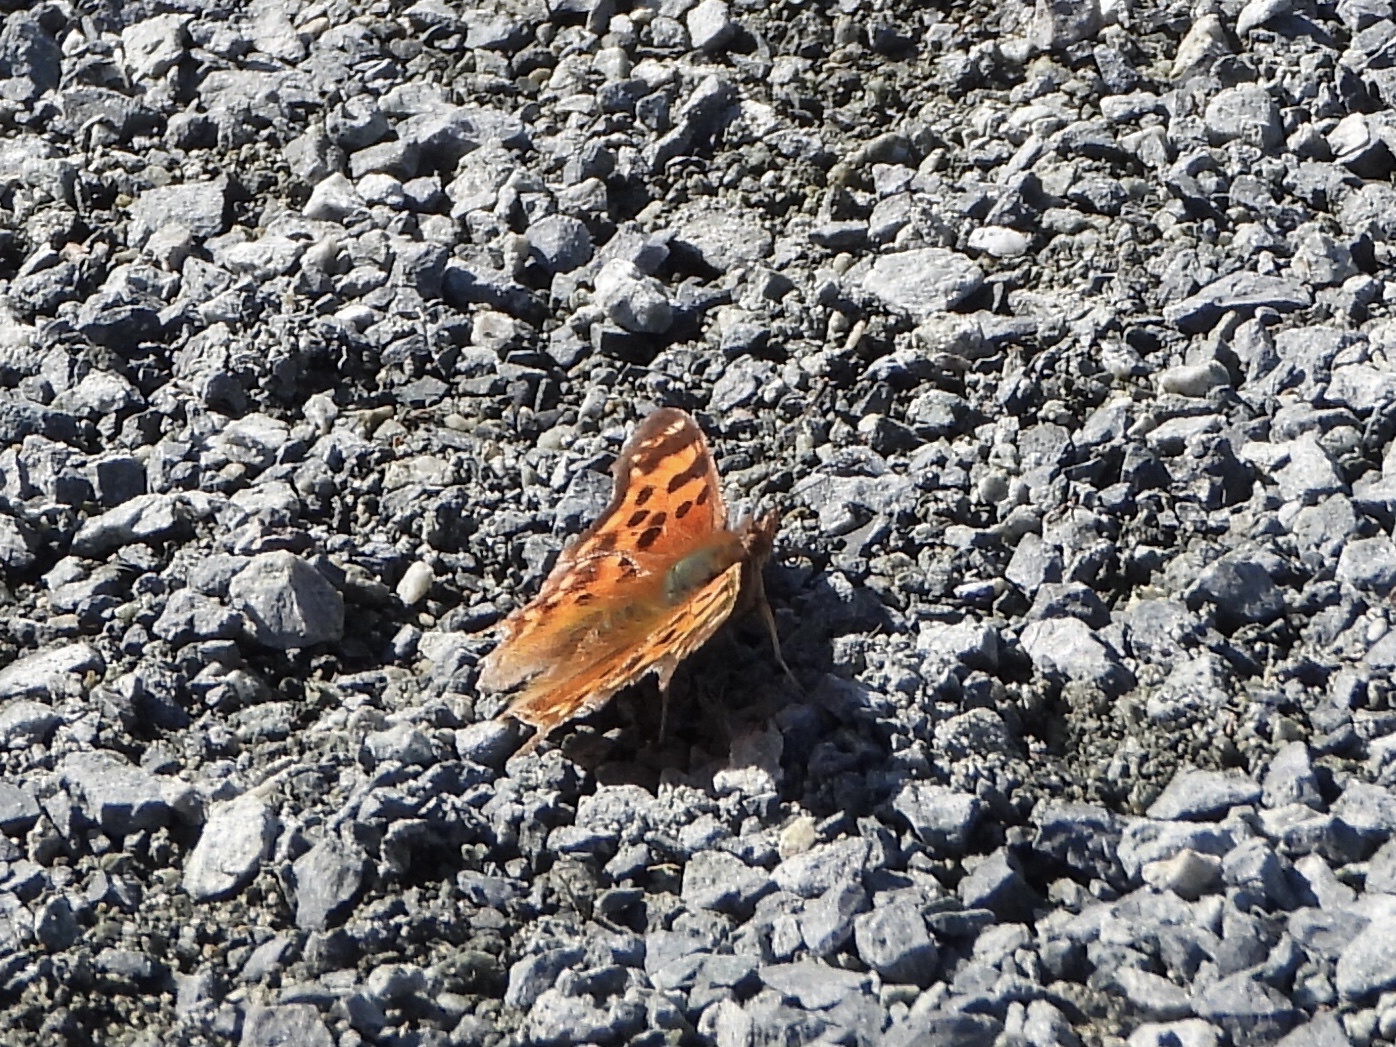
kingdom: Animalia
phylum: Arthropoda
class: Insecta
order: Lepidoptera
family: Nymphalidae
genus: Polygonia
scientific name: Polygonia satyrus
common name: Satyr angle wing
